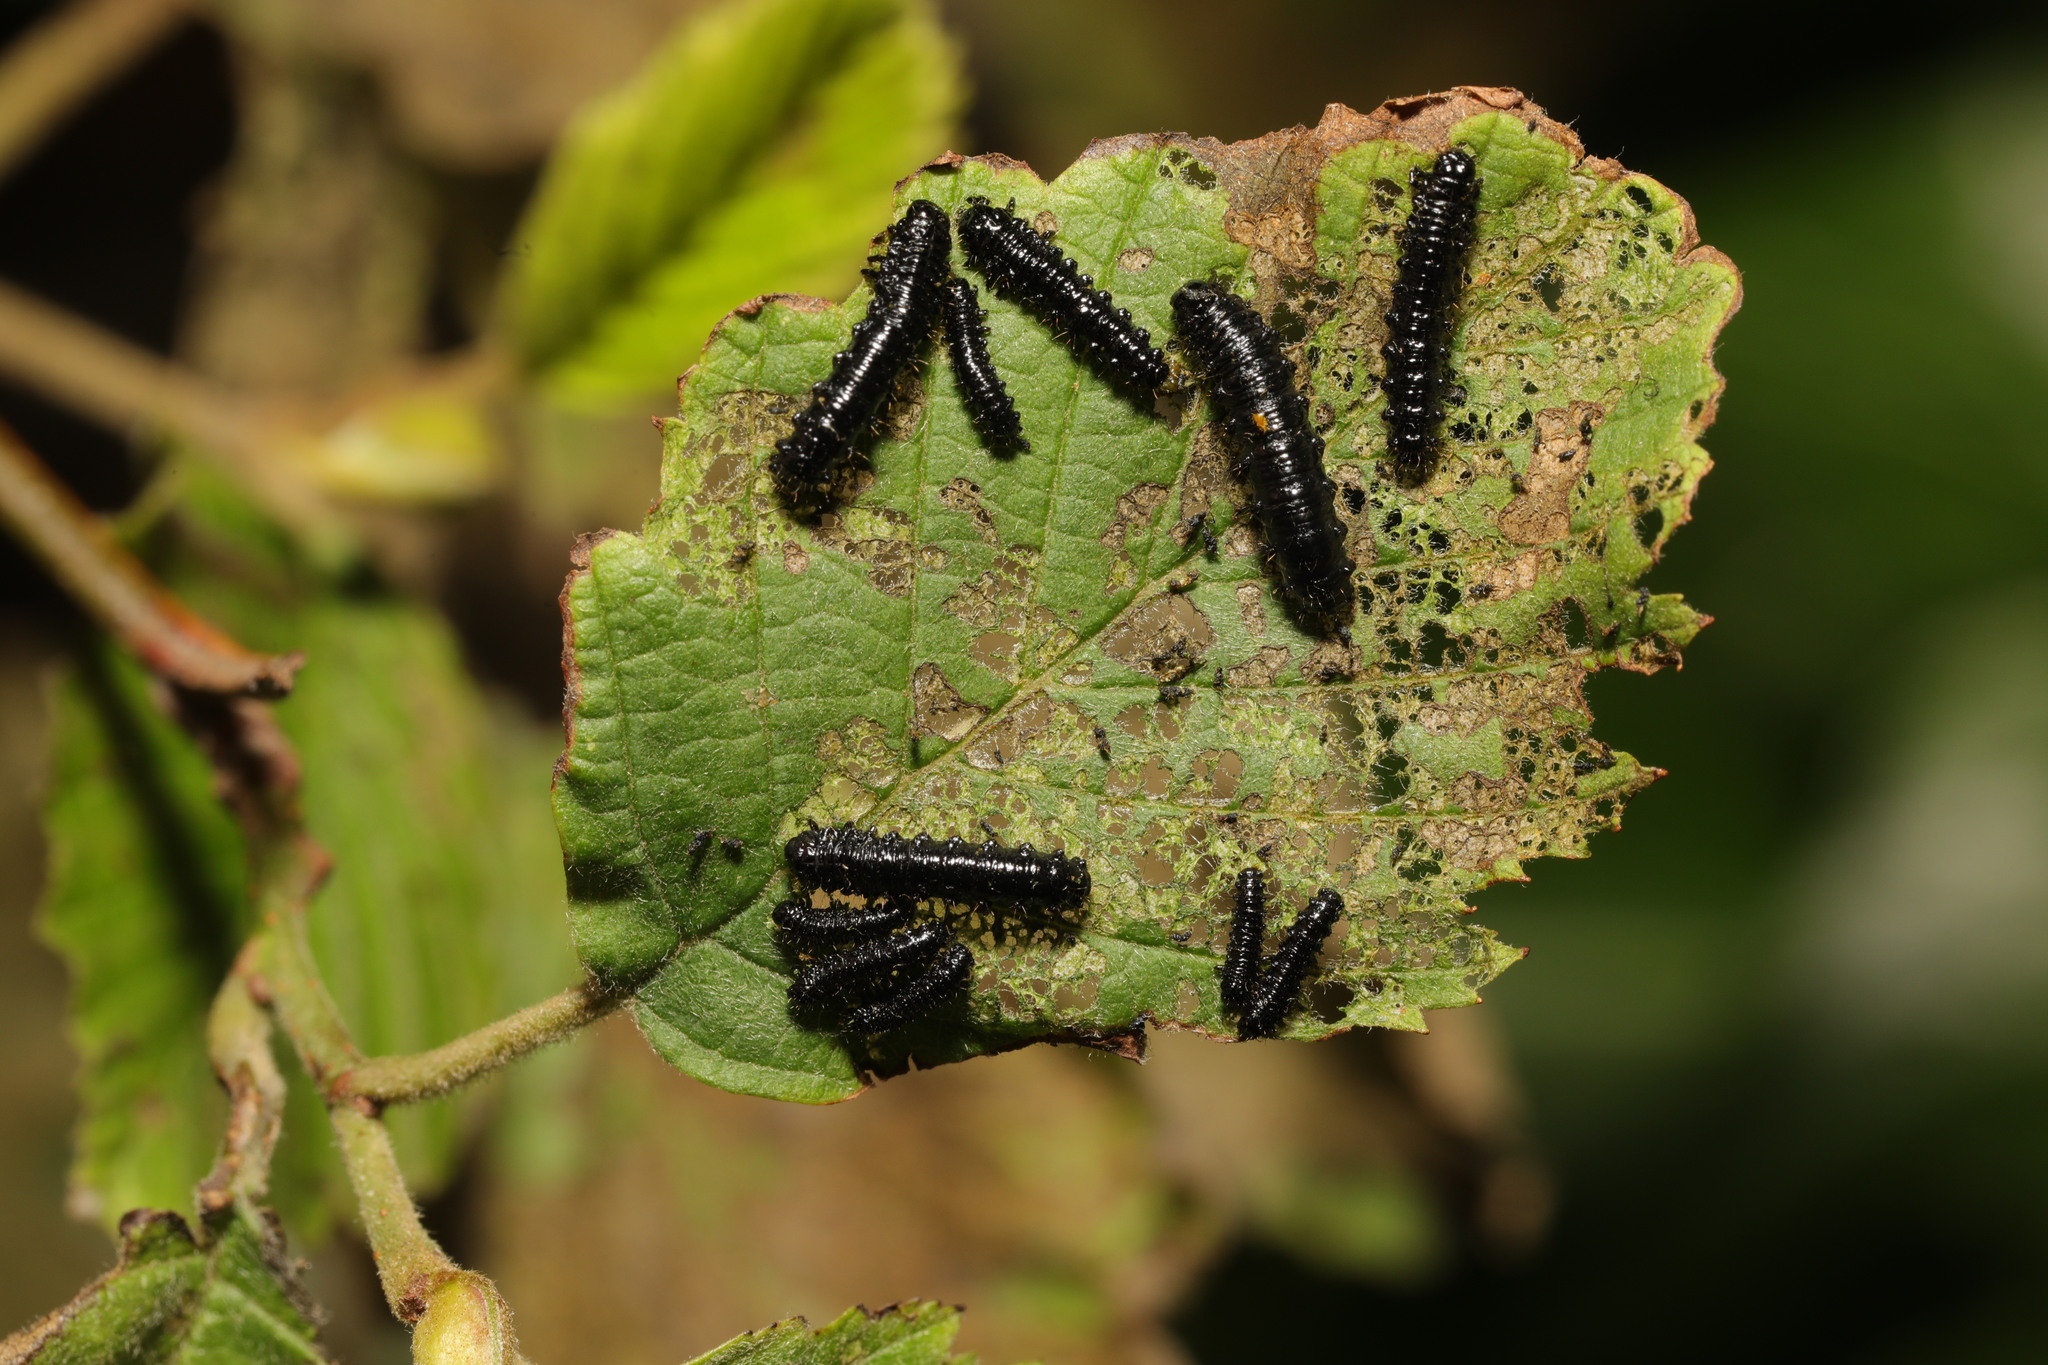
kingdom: Animalia
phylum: Arthropoda
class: Insecta
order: Coleoptera
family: Chrysomelidae
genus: Agelastica
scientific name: Agelastica alni
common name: Alder leaf beetle
